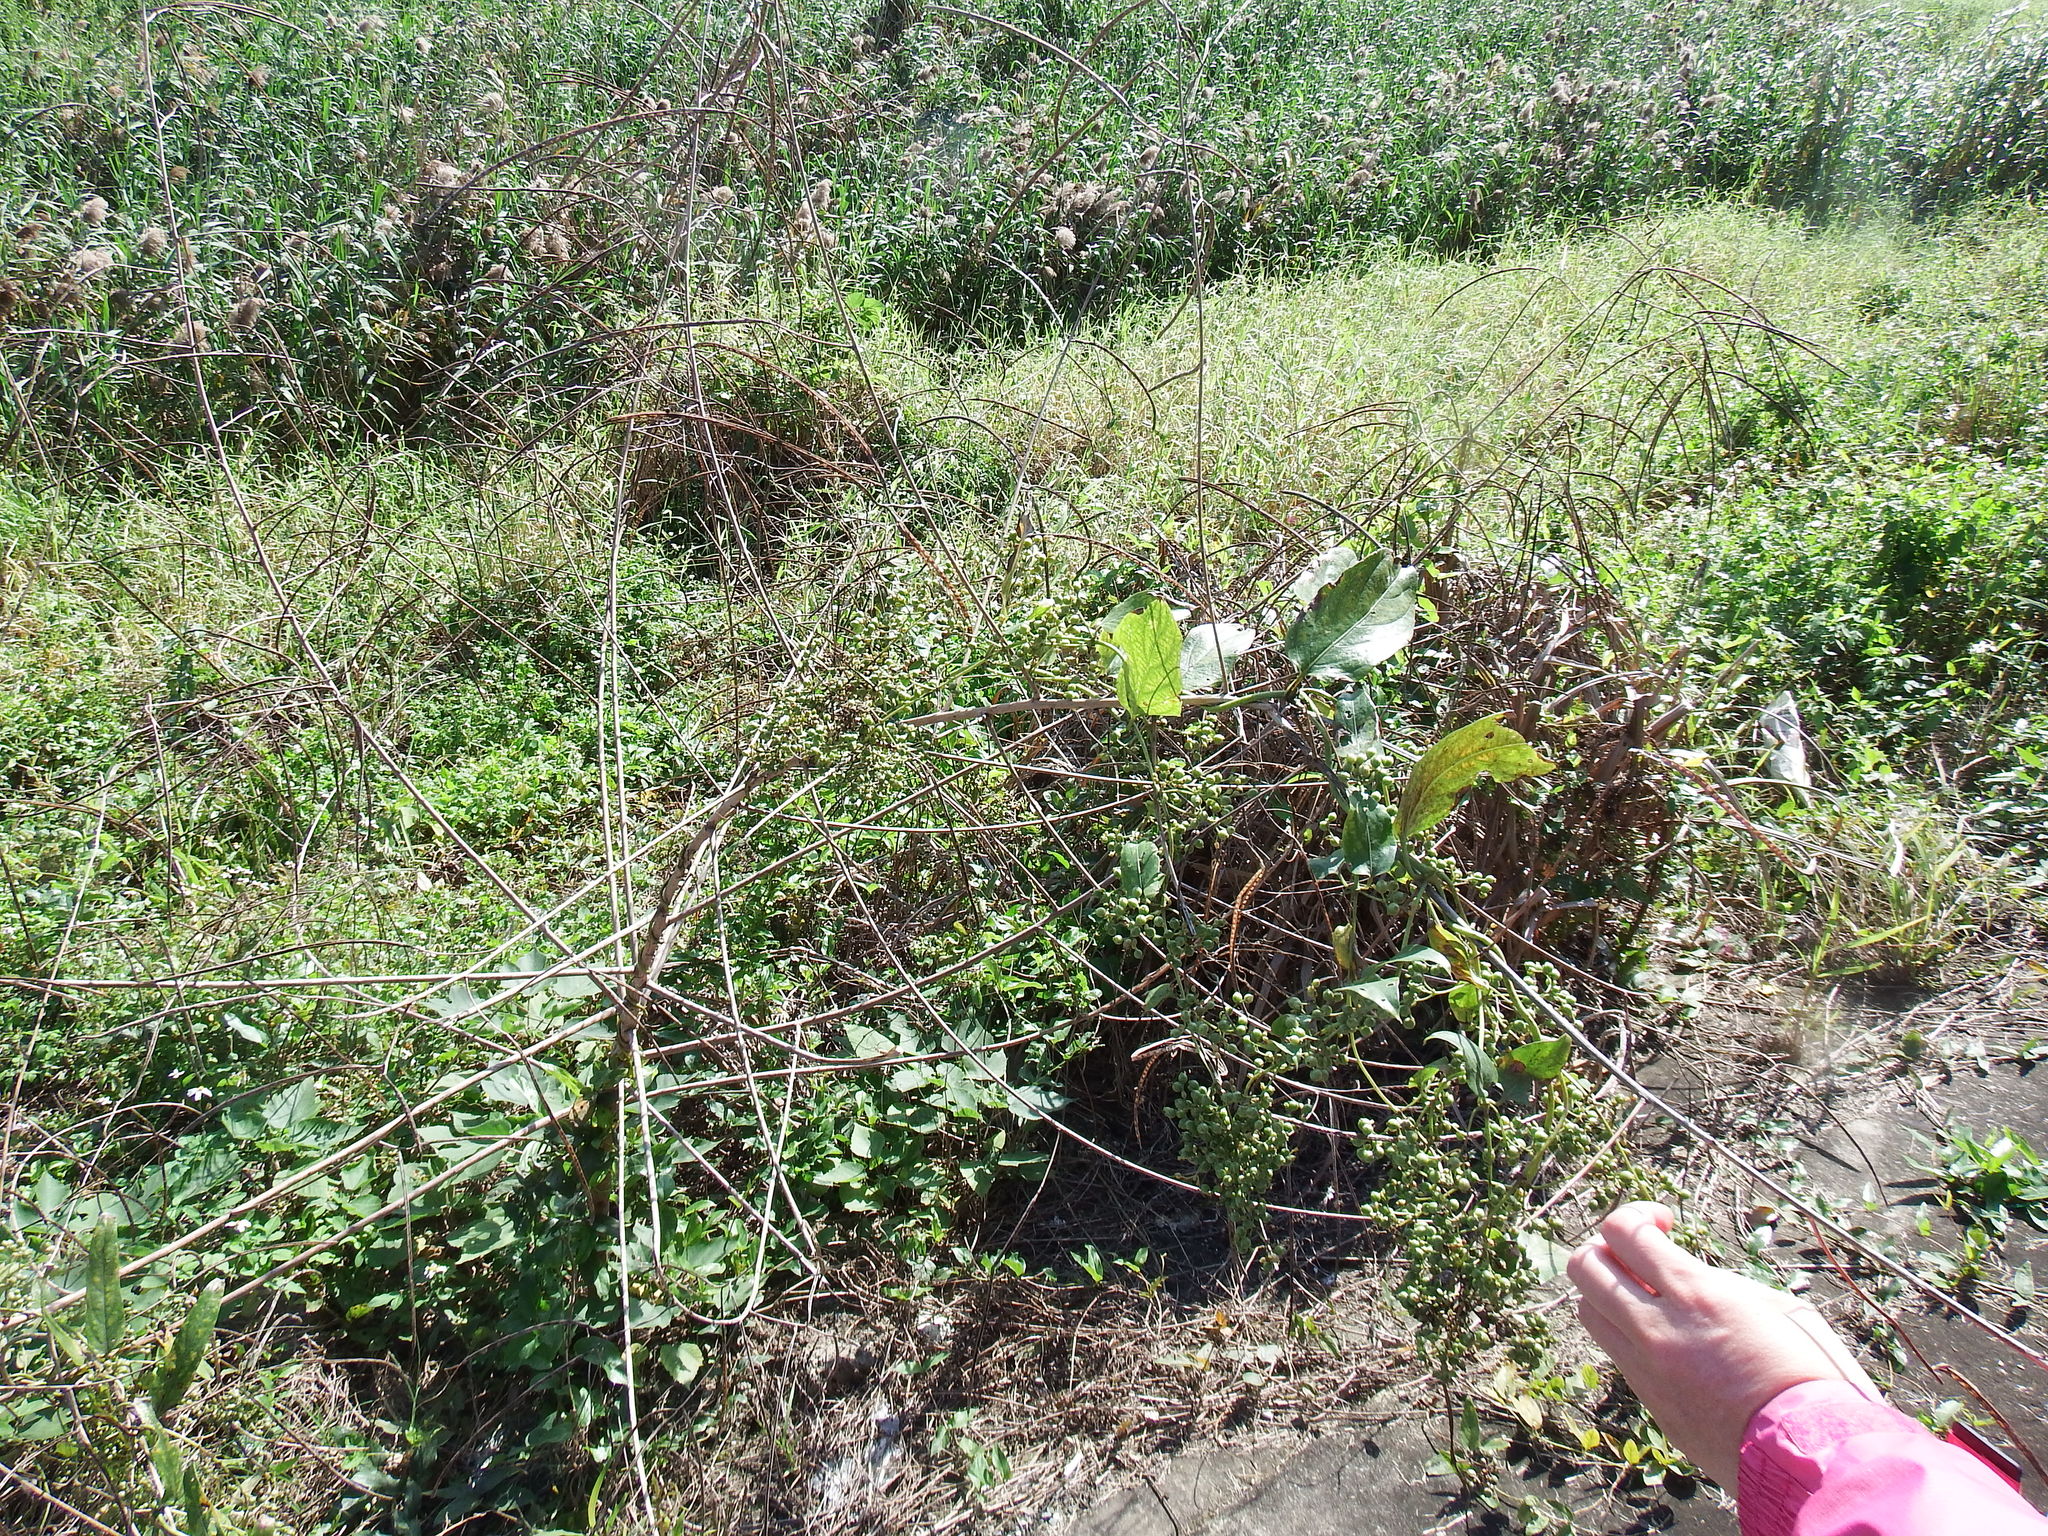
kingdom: Plantae
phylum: Tracheophyta
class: Magnoliopsida
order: Fabales
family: Fabaceae
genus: Sesbania
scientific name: Sesbania cannabina
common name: Canicha
